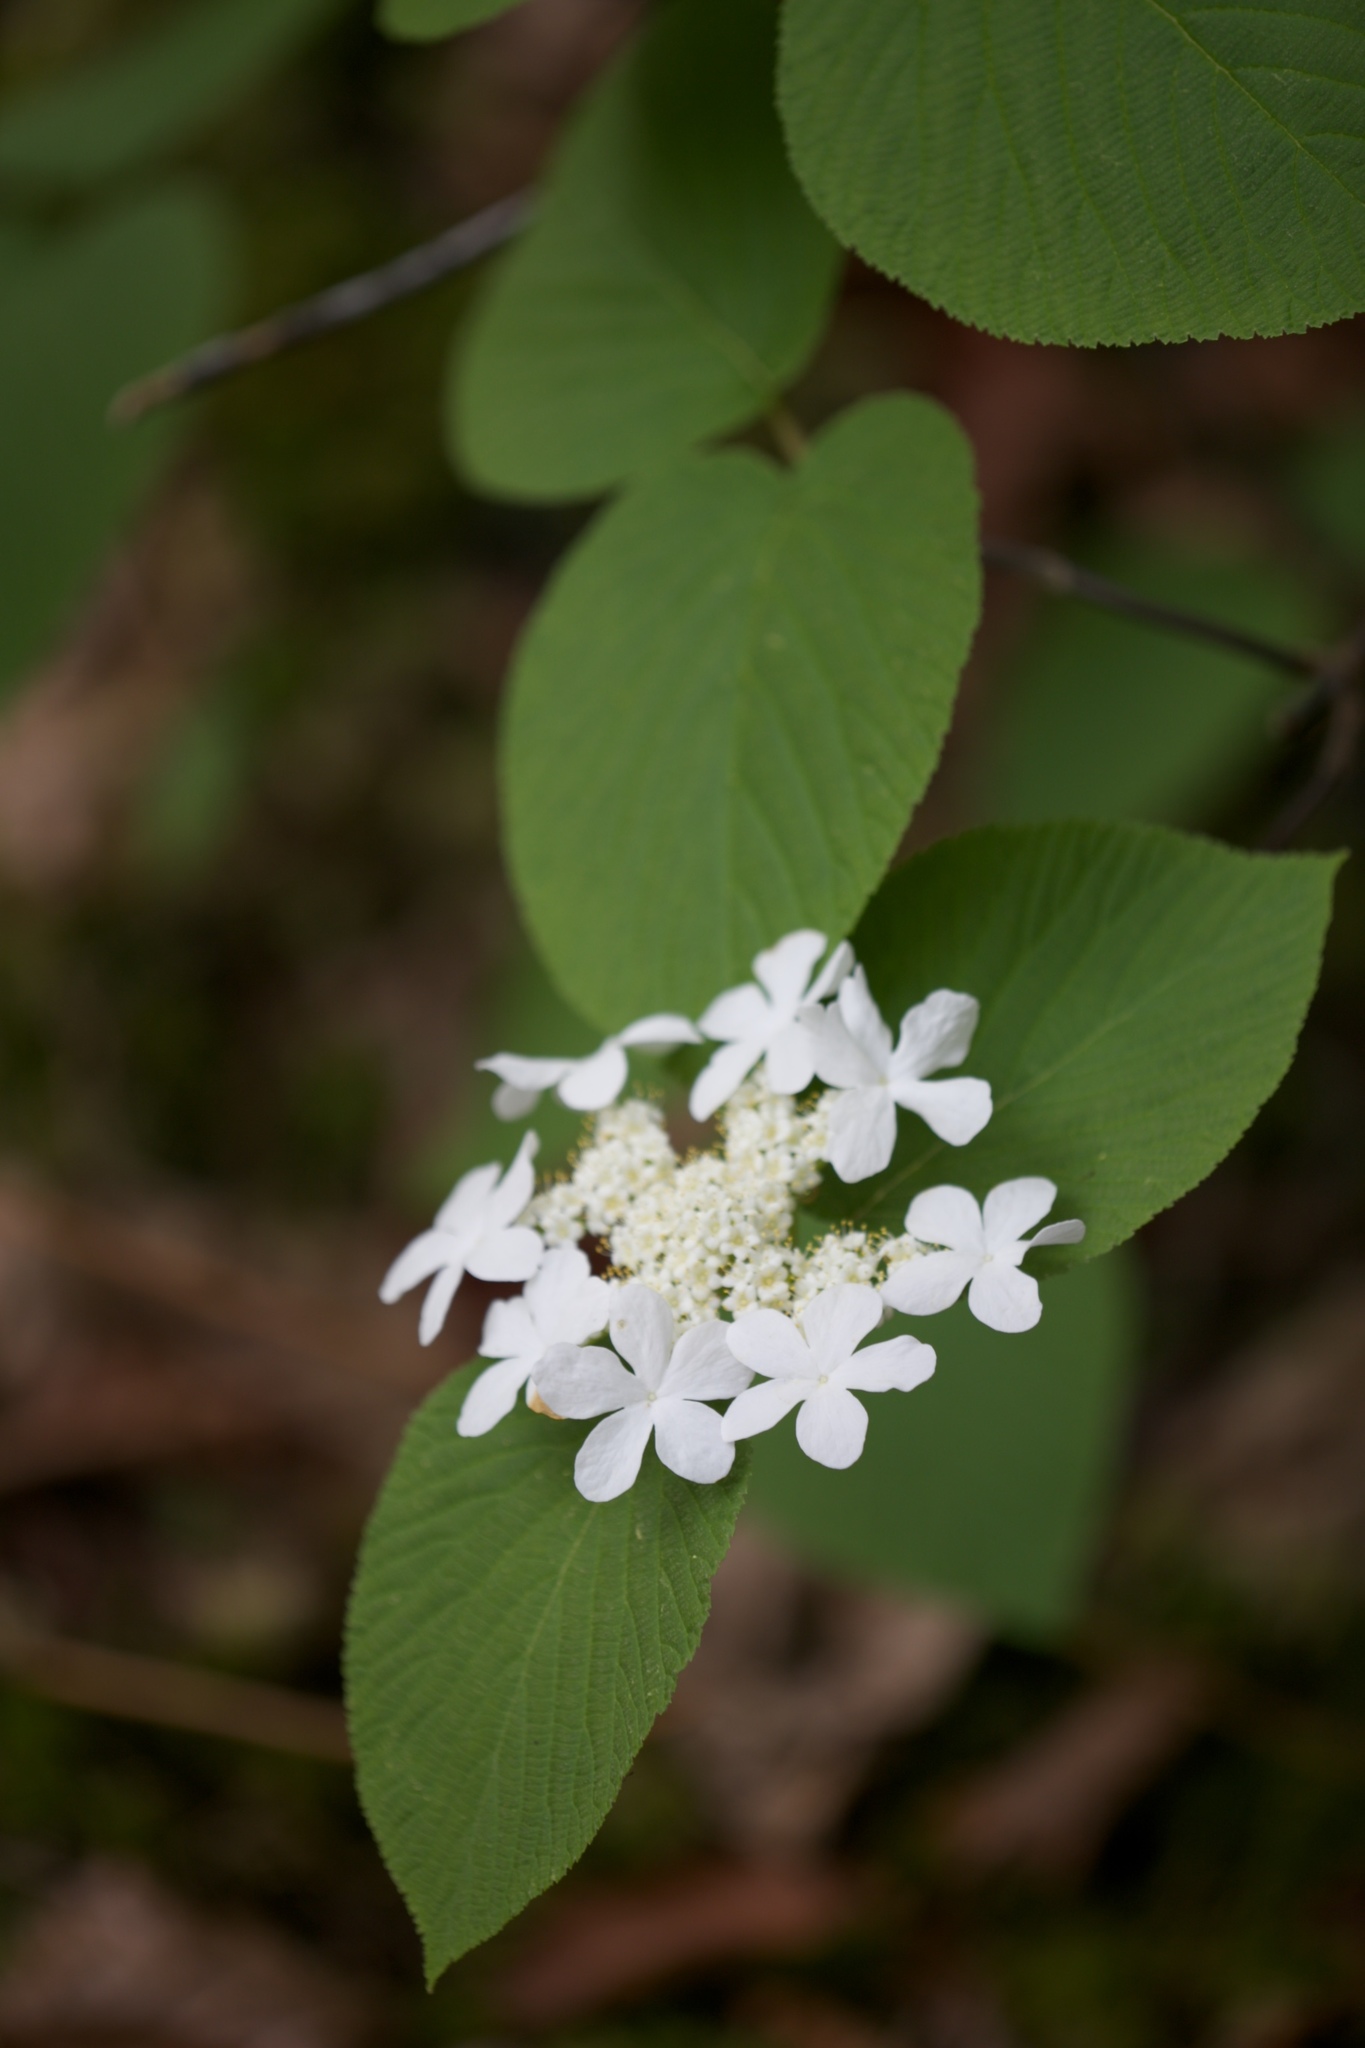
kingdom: Plantae
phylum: Tracheophyta
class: Magnoliopsida
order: Dipsacales
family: Viburnaceae
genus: Viburnum
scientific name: Viburnum lantanoides
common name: Hobblebush
